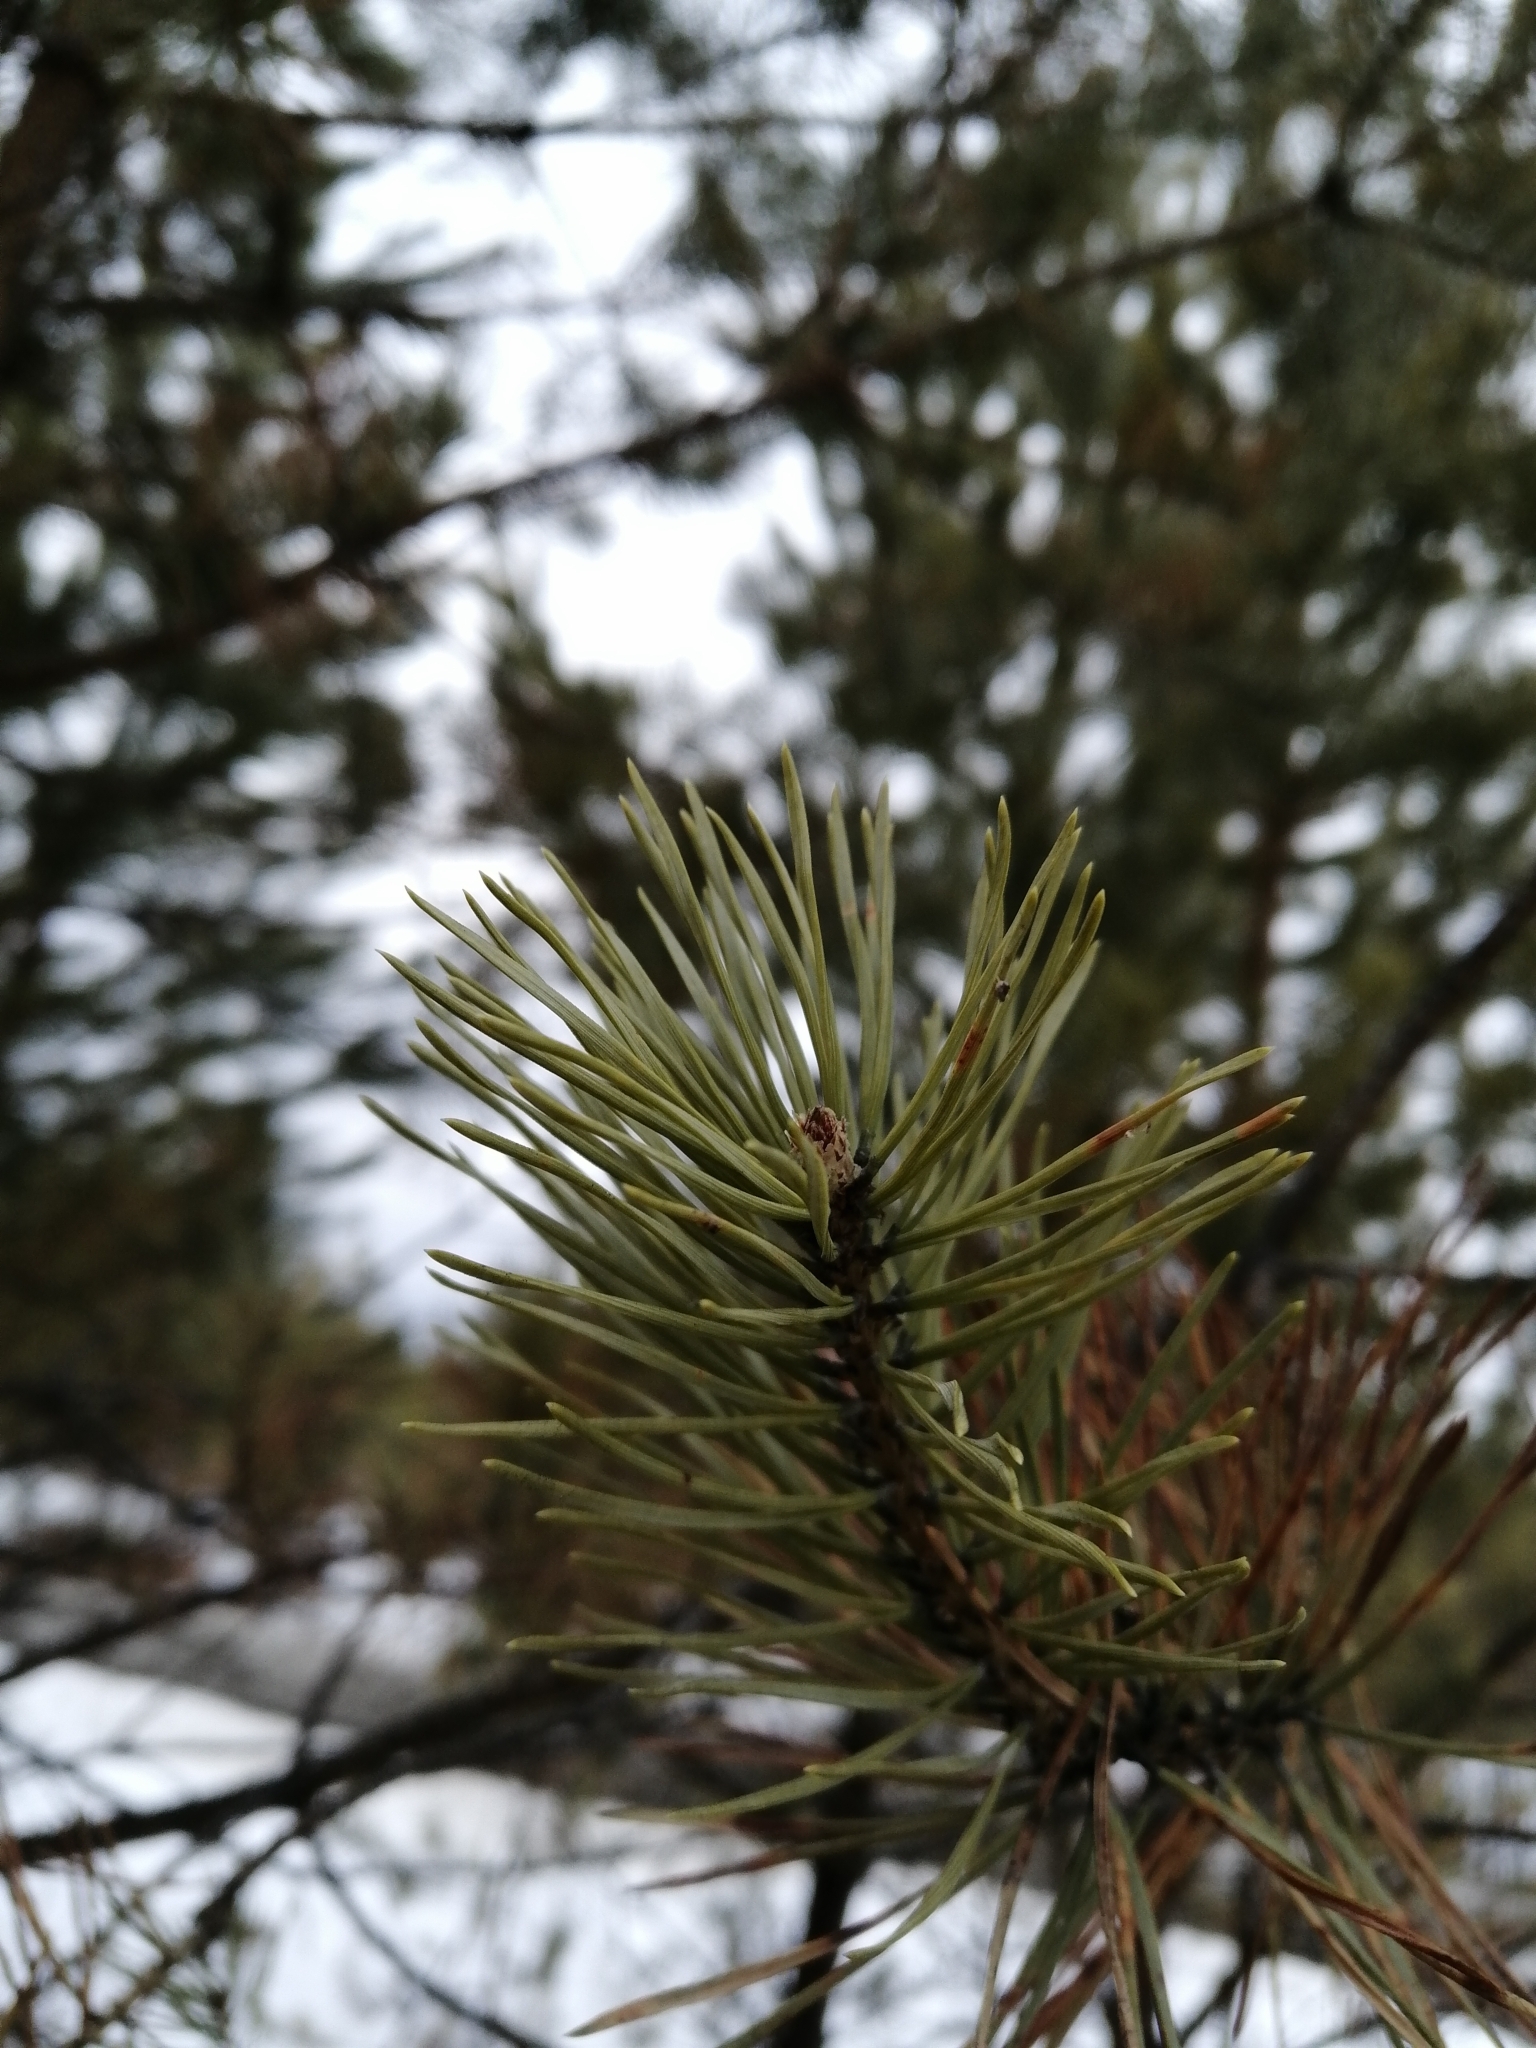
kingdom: Plantae
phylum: Tracheophyta
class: Pinopsida
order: Pinales
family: Pinaceae
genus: Pinus
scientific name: Pinus sylvestris
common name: Scots pine
